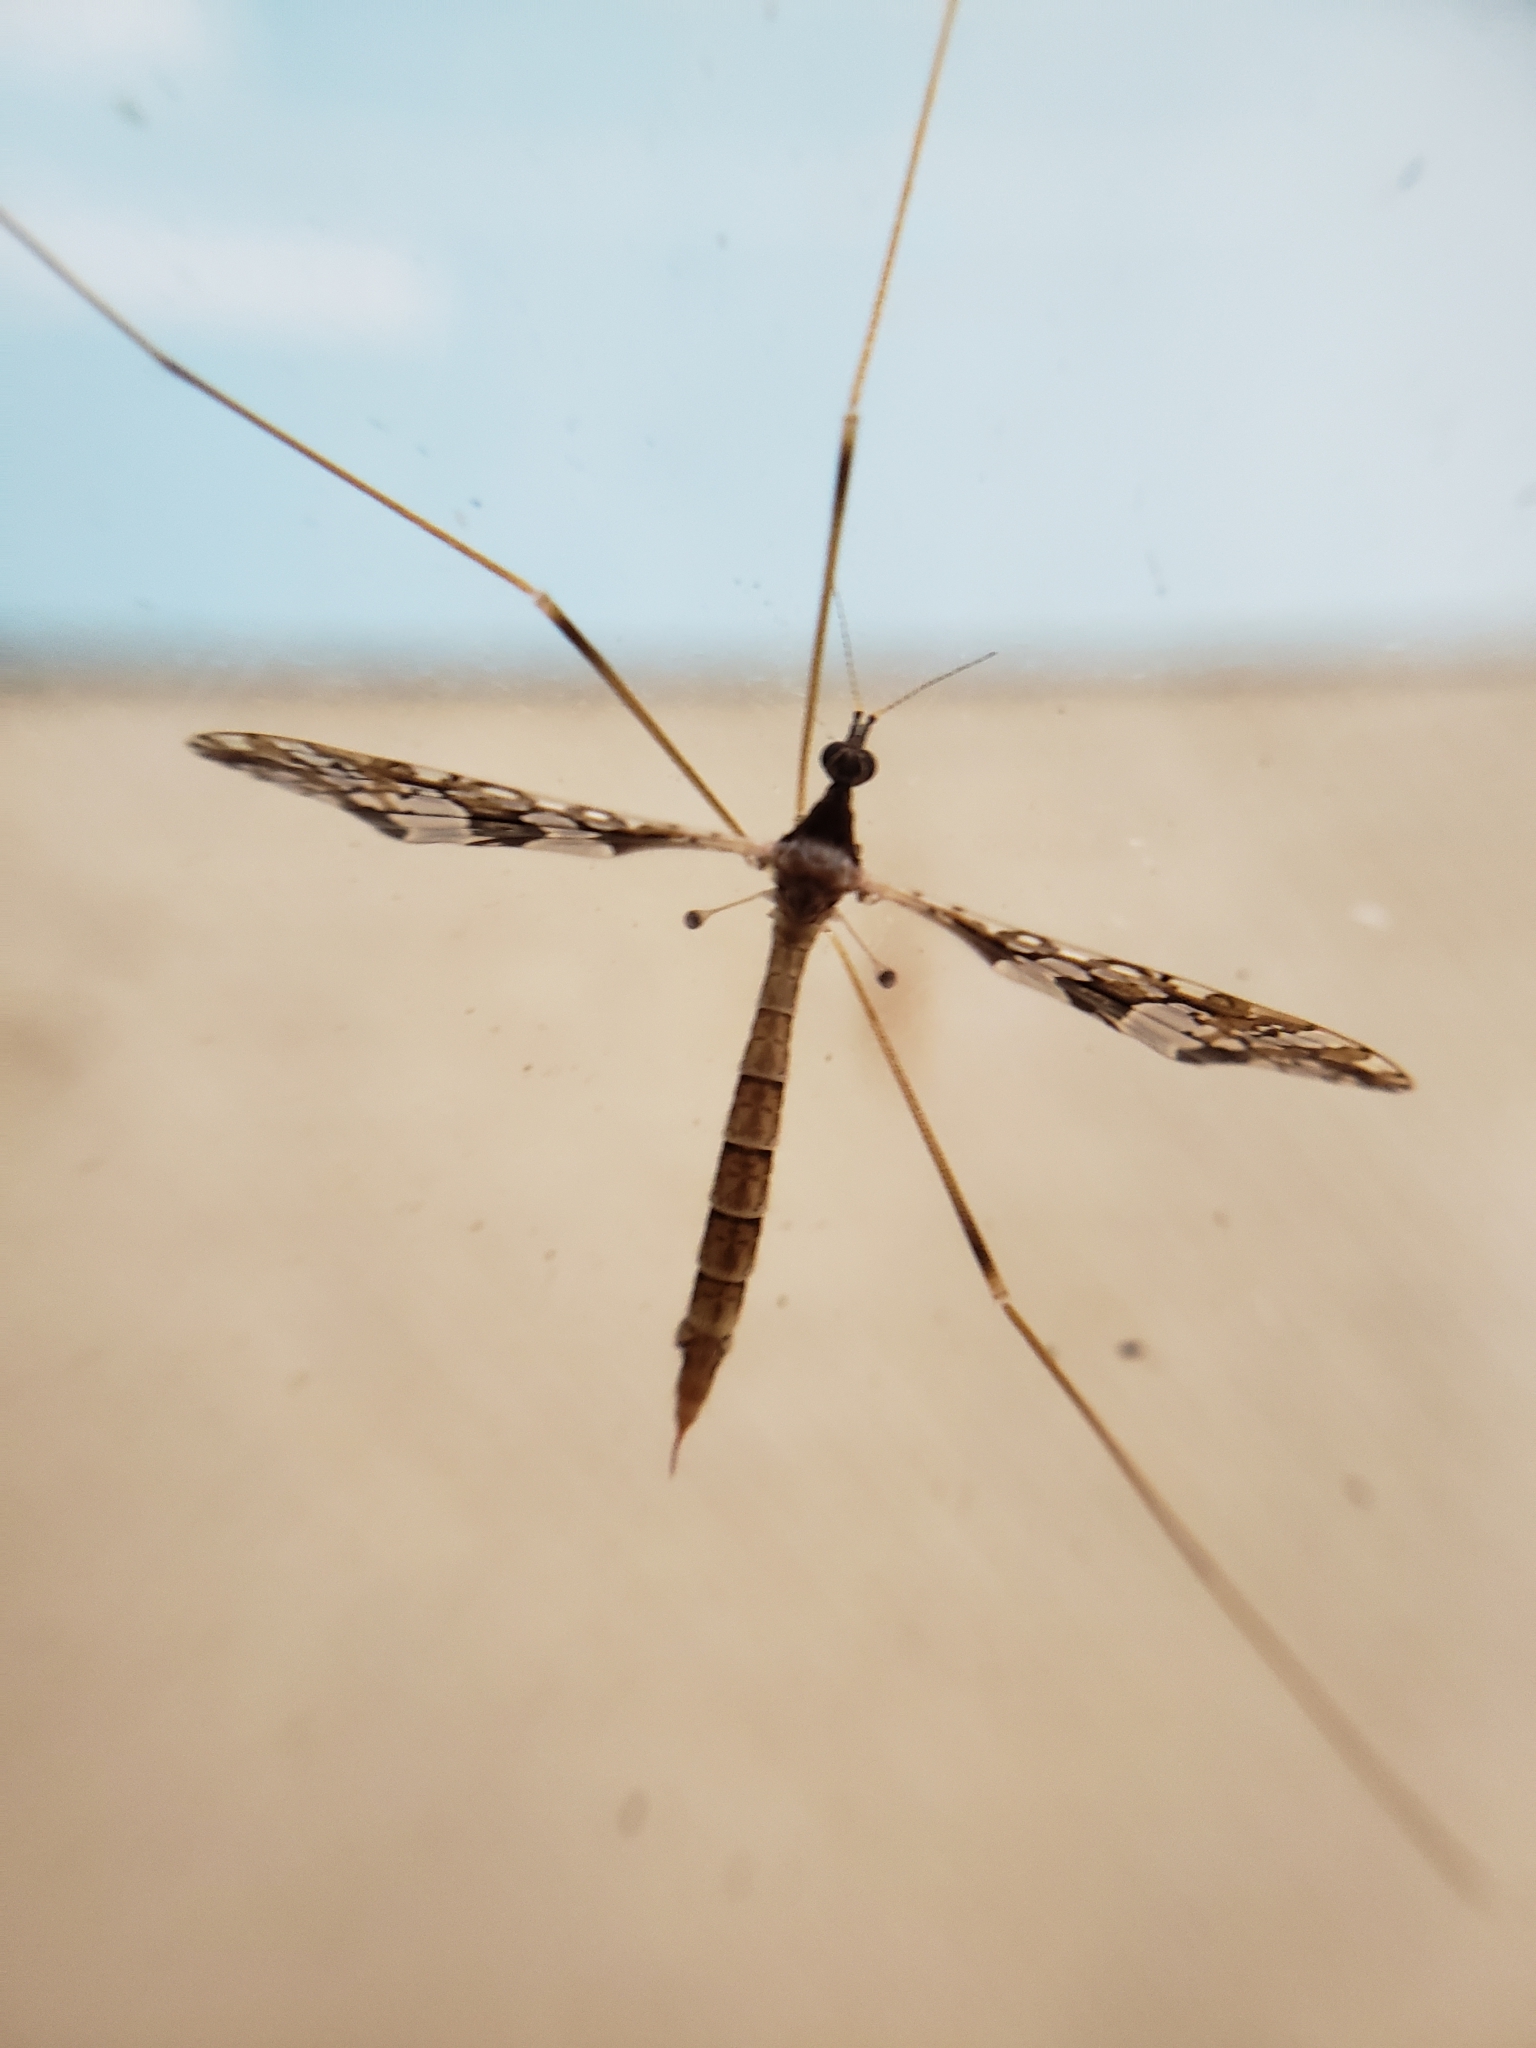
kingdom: Animalia
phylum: Arthropoda
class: Insecta
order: Diptera
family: Limoniidae
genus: Epiphragma
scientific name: Epiphragma solatrix
